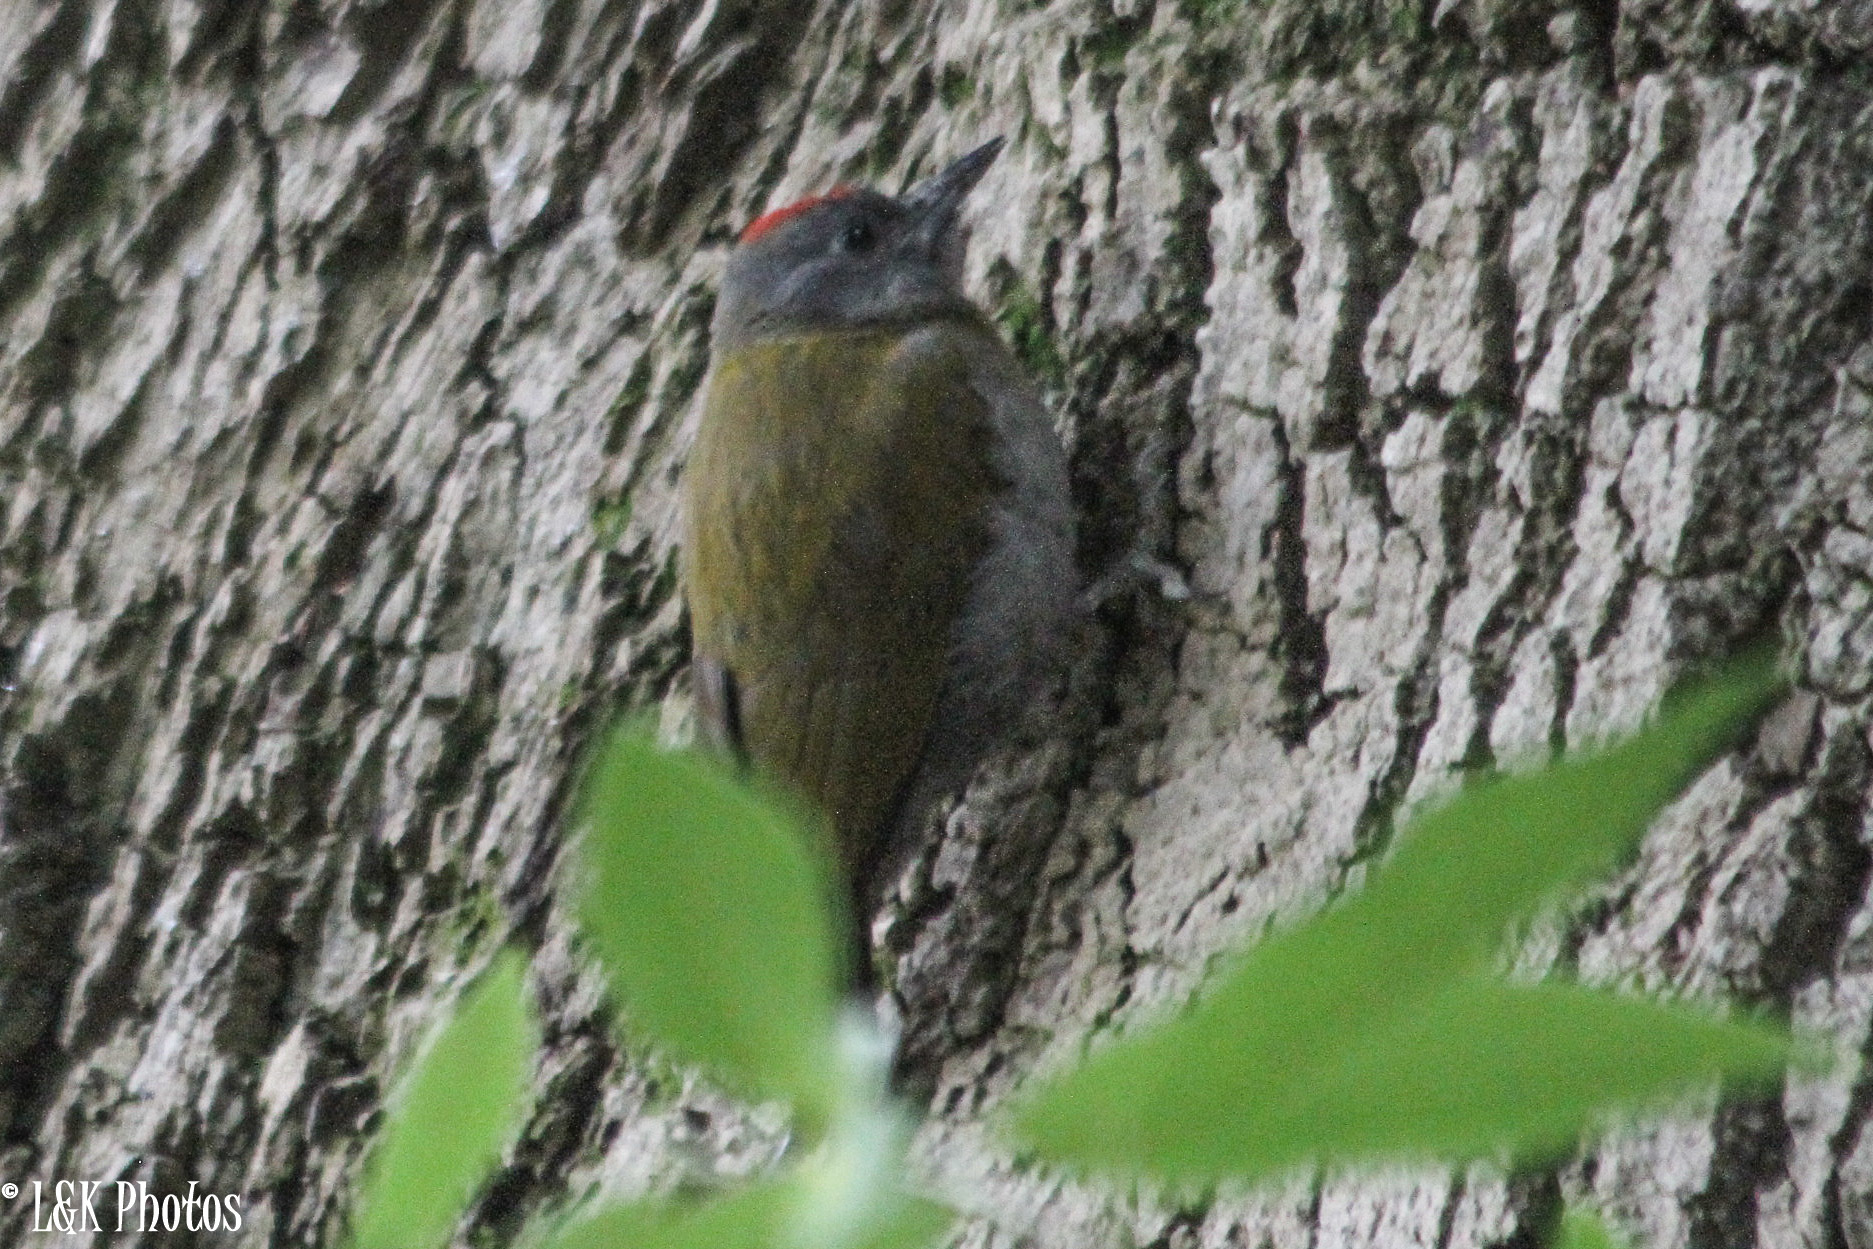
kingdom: Animalia
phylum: Chordata
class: Aves
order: Piciformes
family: Picidae
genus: Dendropicos
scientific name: Dendropicos griseocephalus
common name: Olive woodpecker
